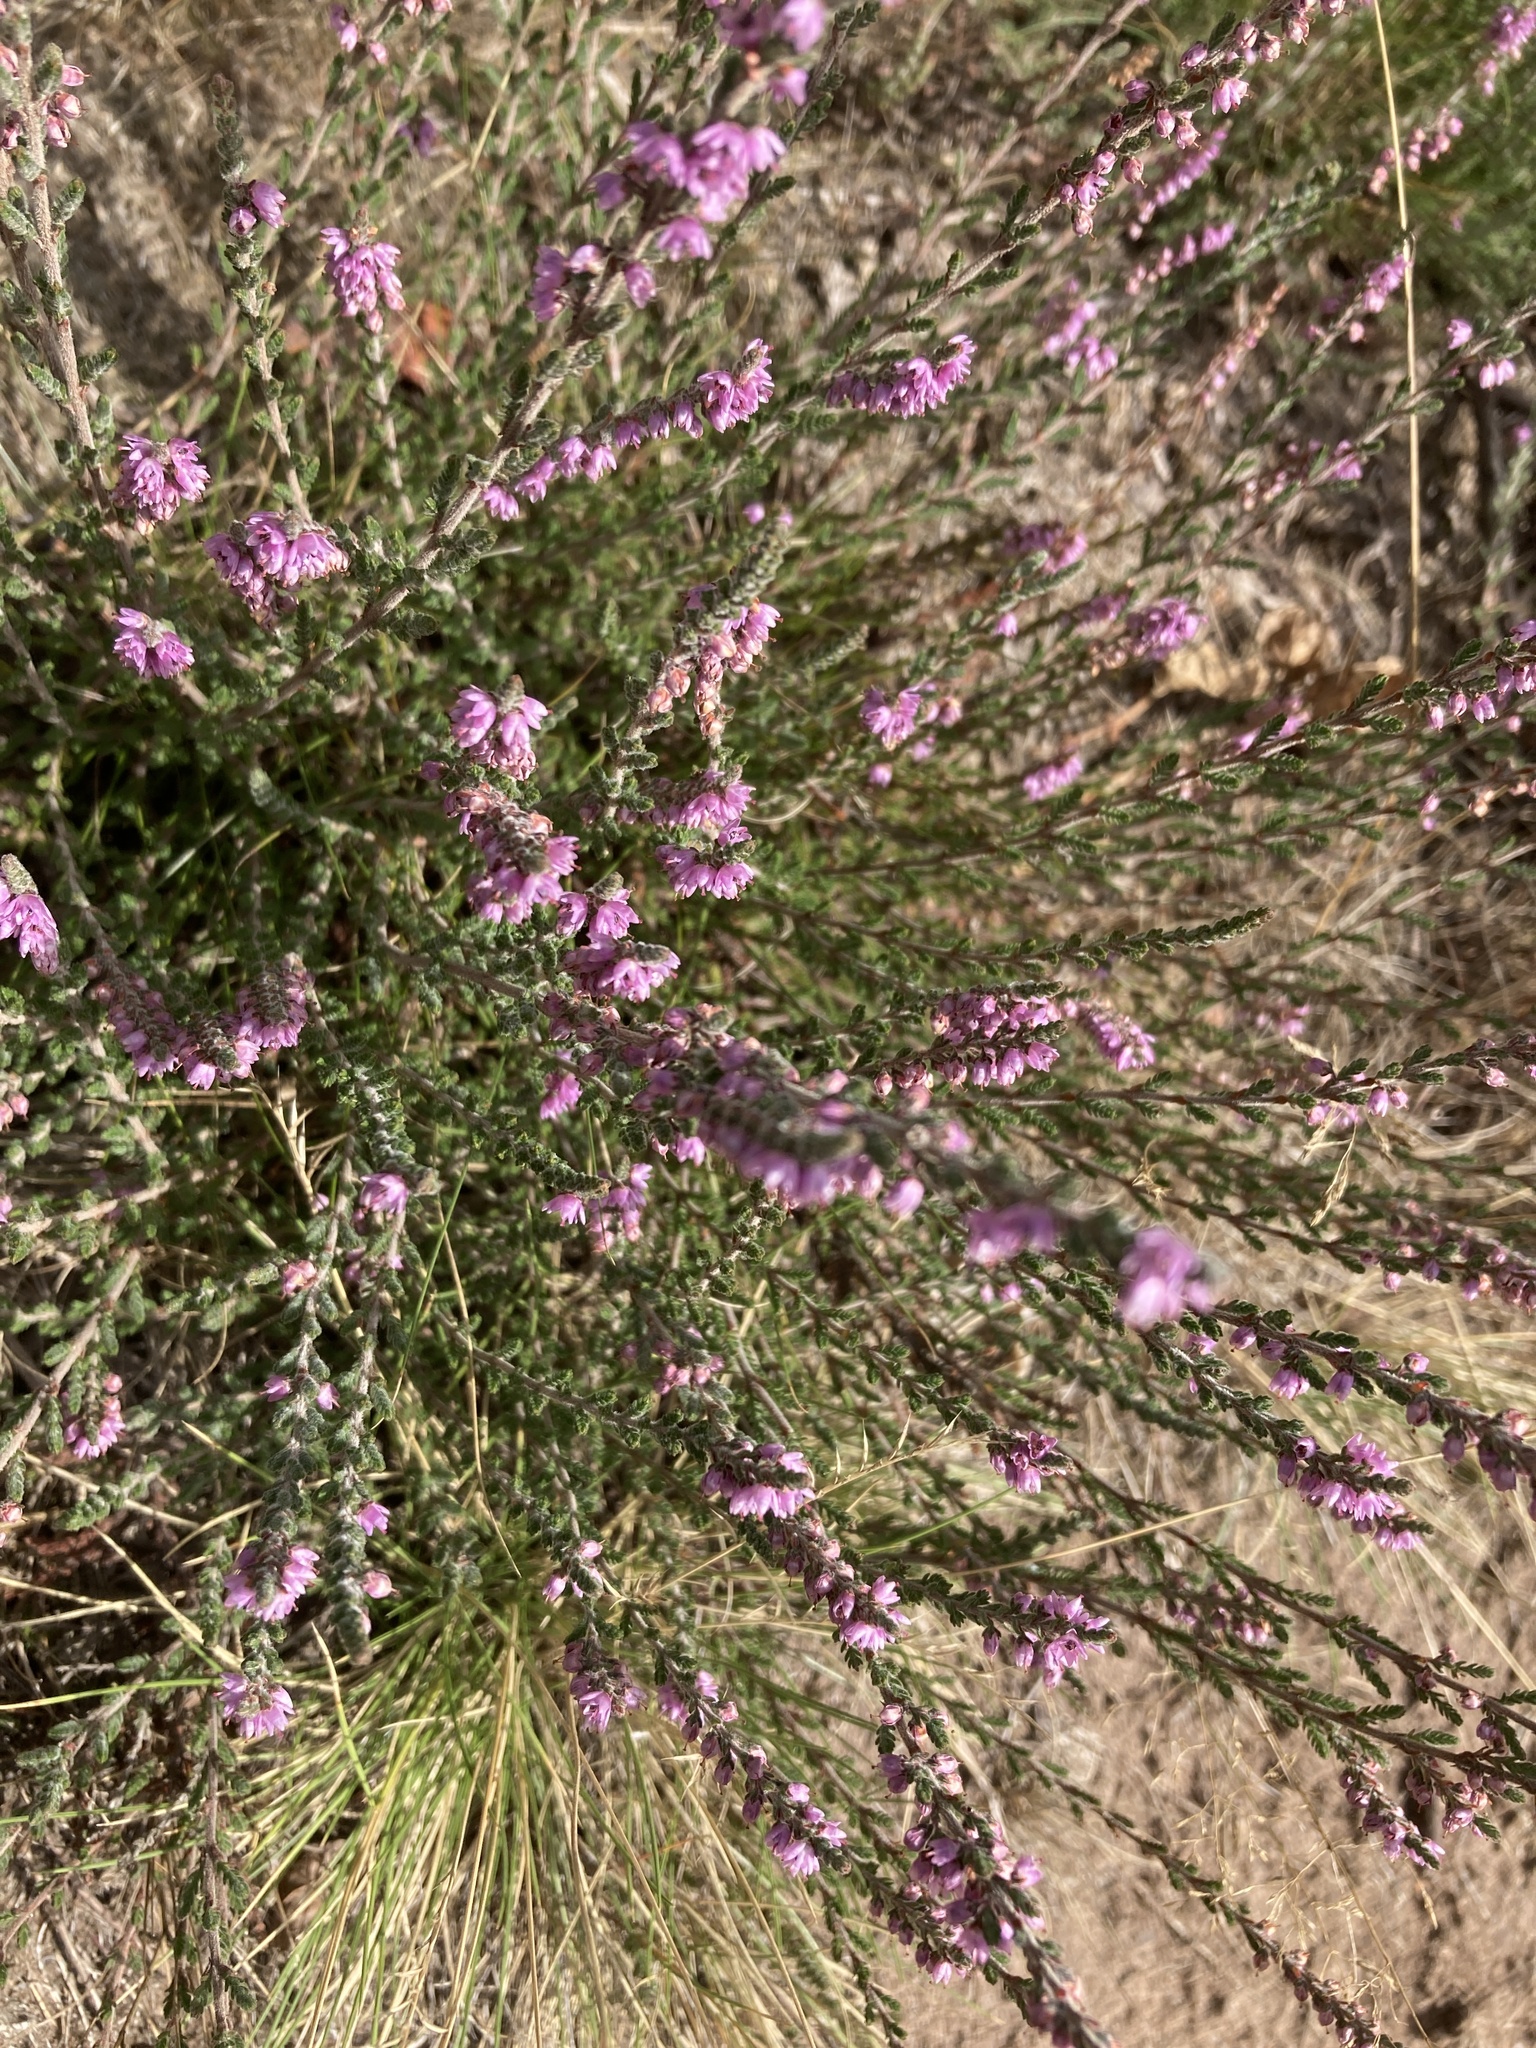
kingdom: Plantae
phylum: Tracheophyta
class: Magnoliopsida
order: Ericales
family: Ericaceae
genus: Calluna
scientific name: Calluna vulgaris
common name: Heather
